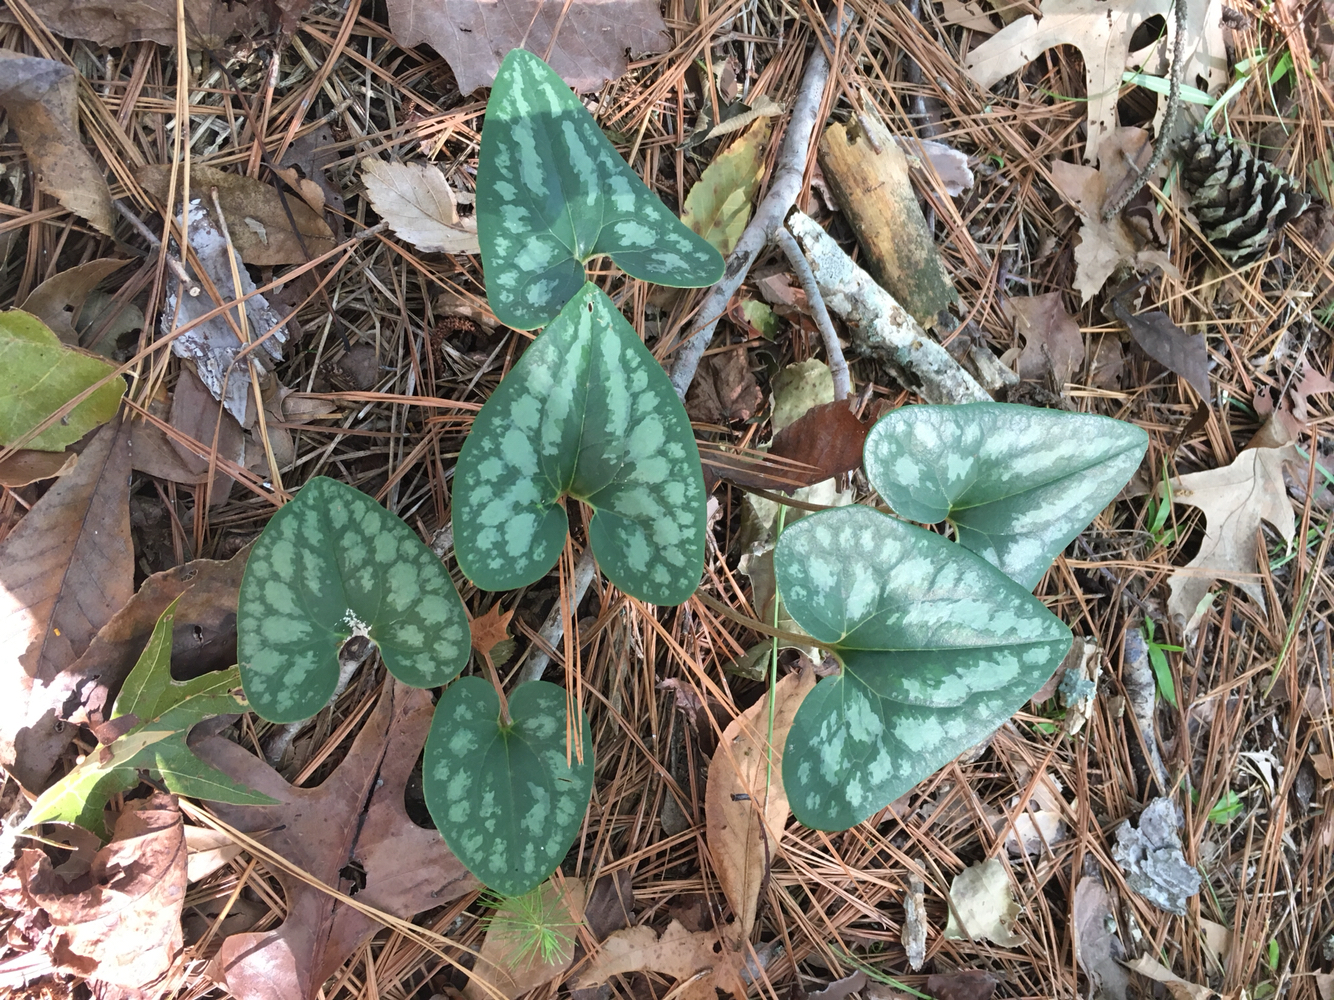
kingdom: Plantae
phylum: Tracheophyta
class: Magnoliopsida
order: Piperales
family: Aristolochiaceae
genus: Hexastylis
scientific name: Hexastylis arifolia
